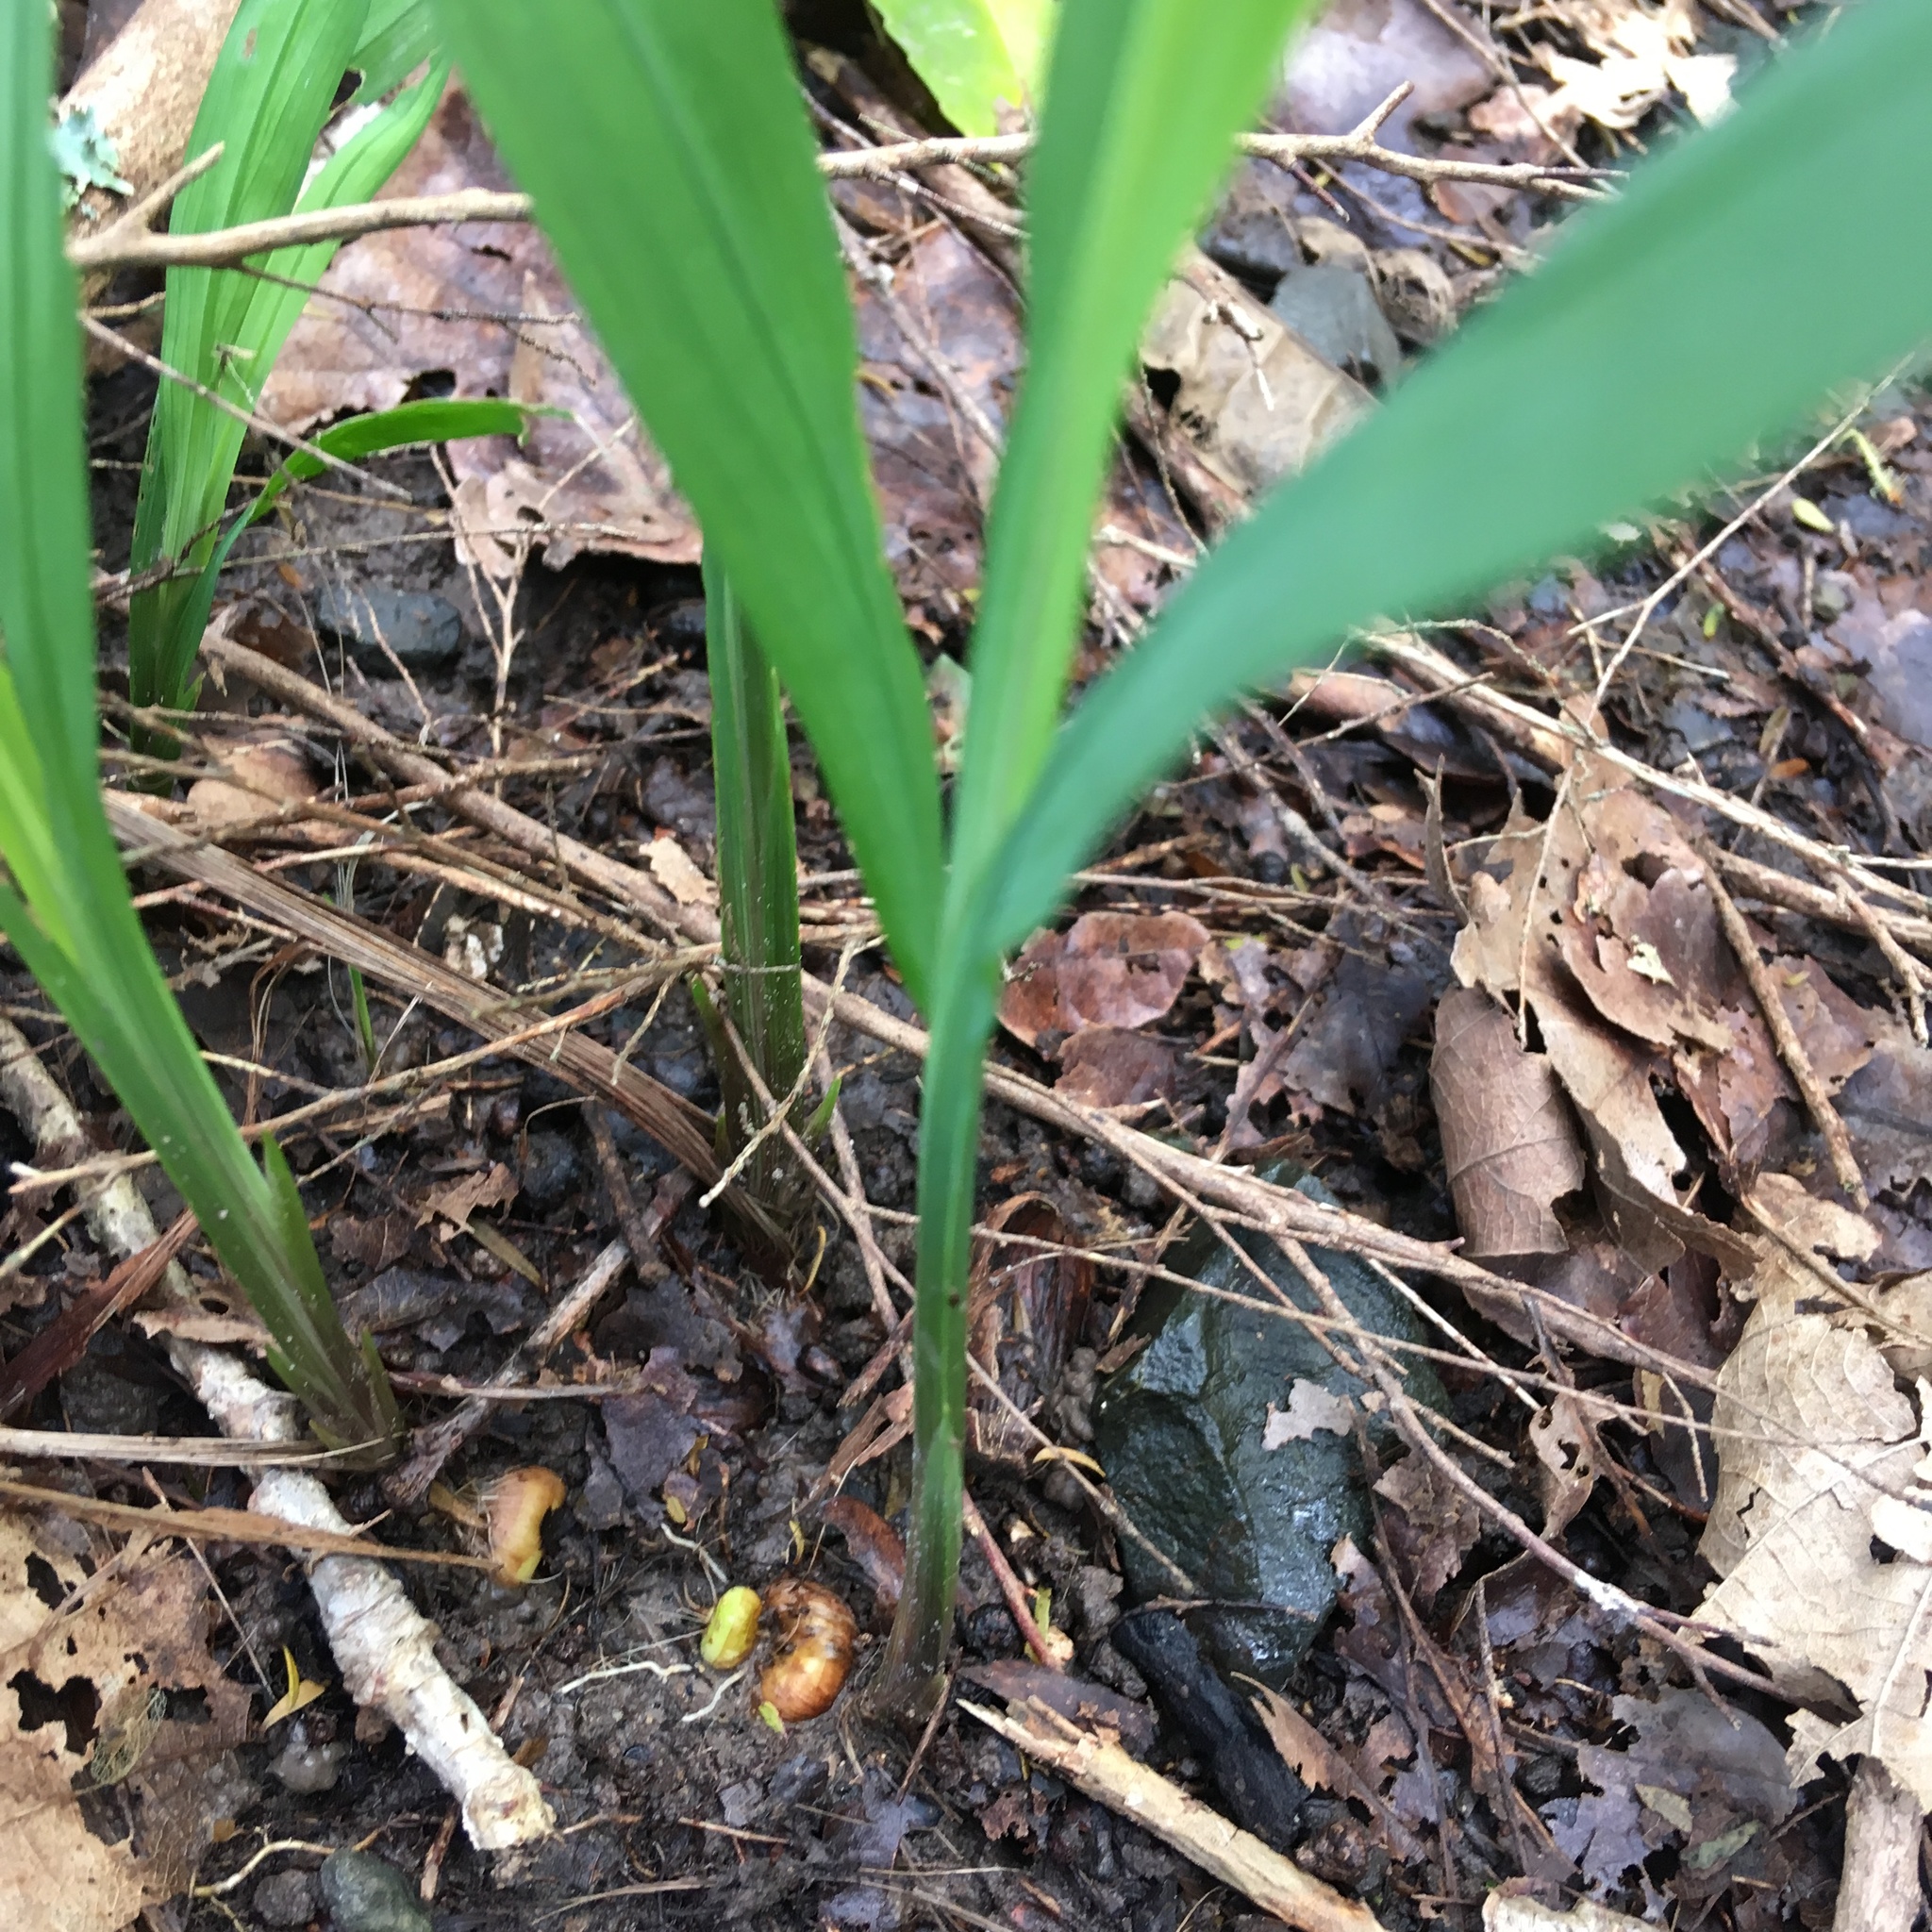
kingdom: Plantae
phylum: Tracheophyta
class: Liliopsida
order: Asparagales
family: Iridaceae
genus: Crocosmia
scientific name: Crocosmia crocosmiiflora
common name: Montbretia
